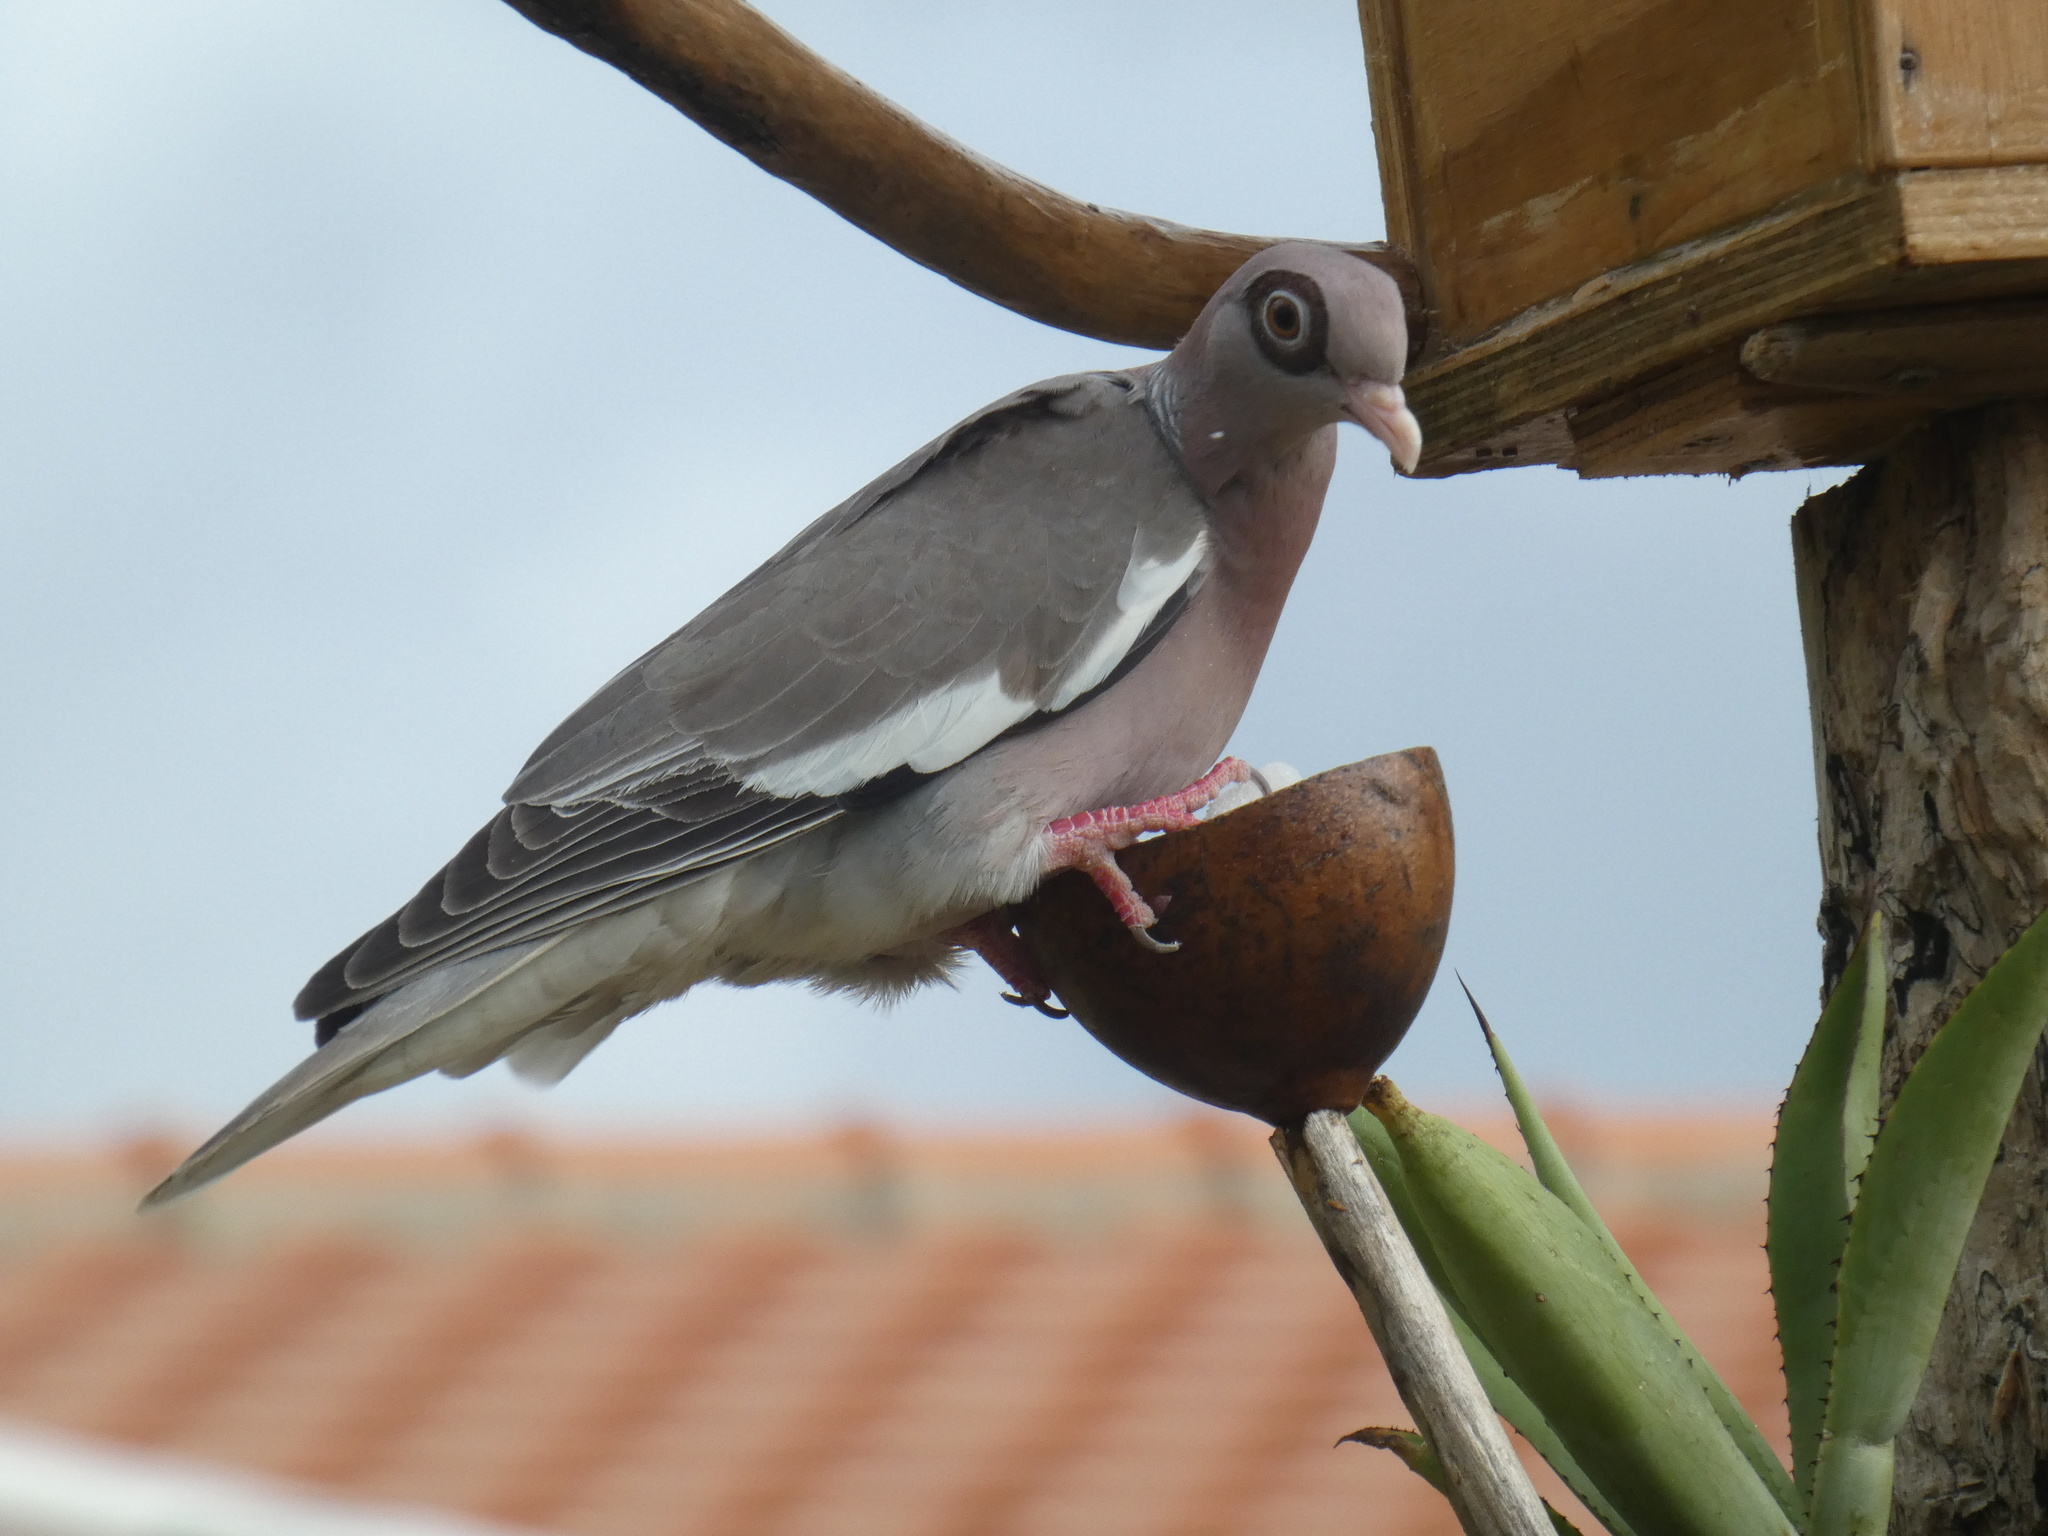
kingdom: Animalia
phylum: Chordata
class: Aves
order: Columbiformes
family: Columbidae
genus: Patagioenas
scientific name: Patagioenas corensis
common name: Bare-eyed pigeon
